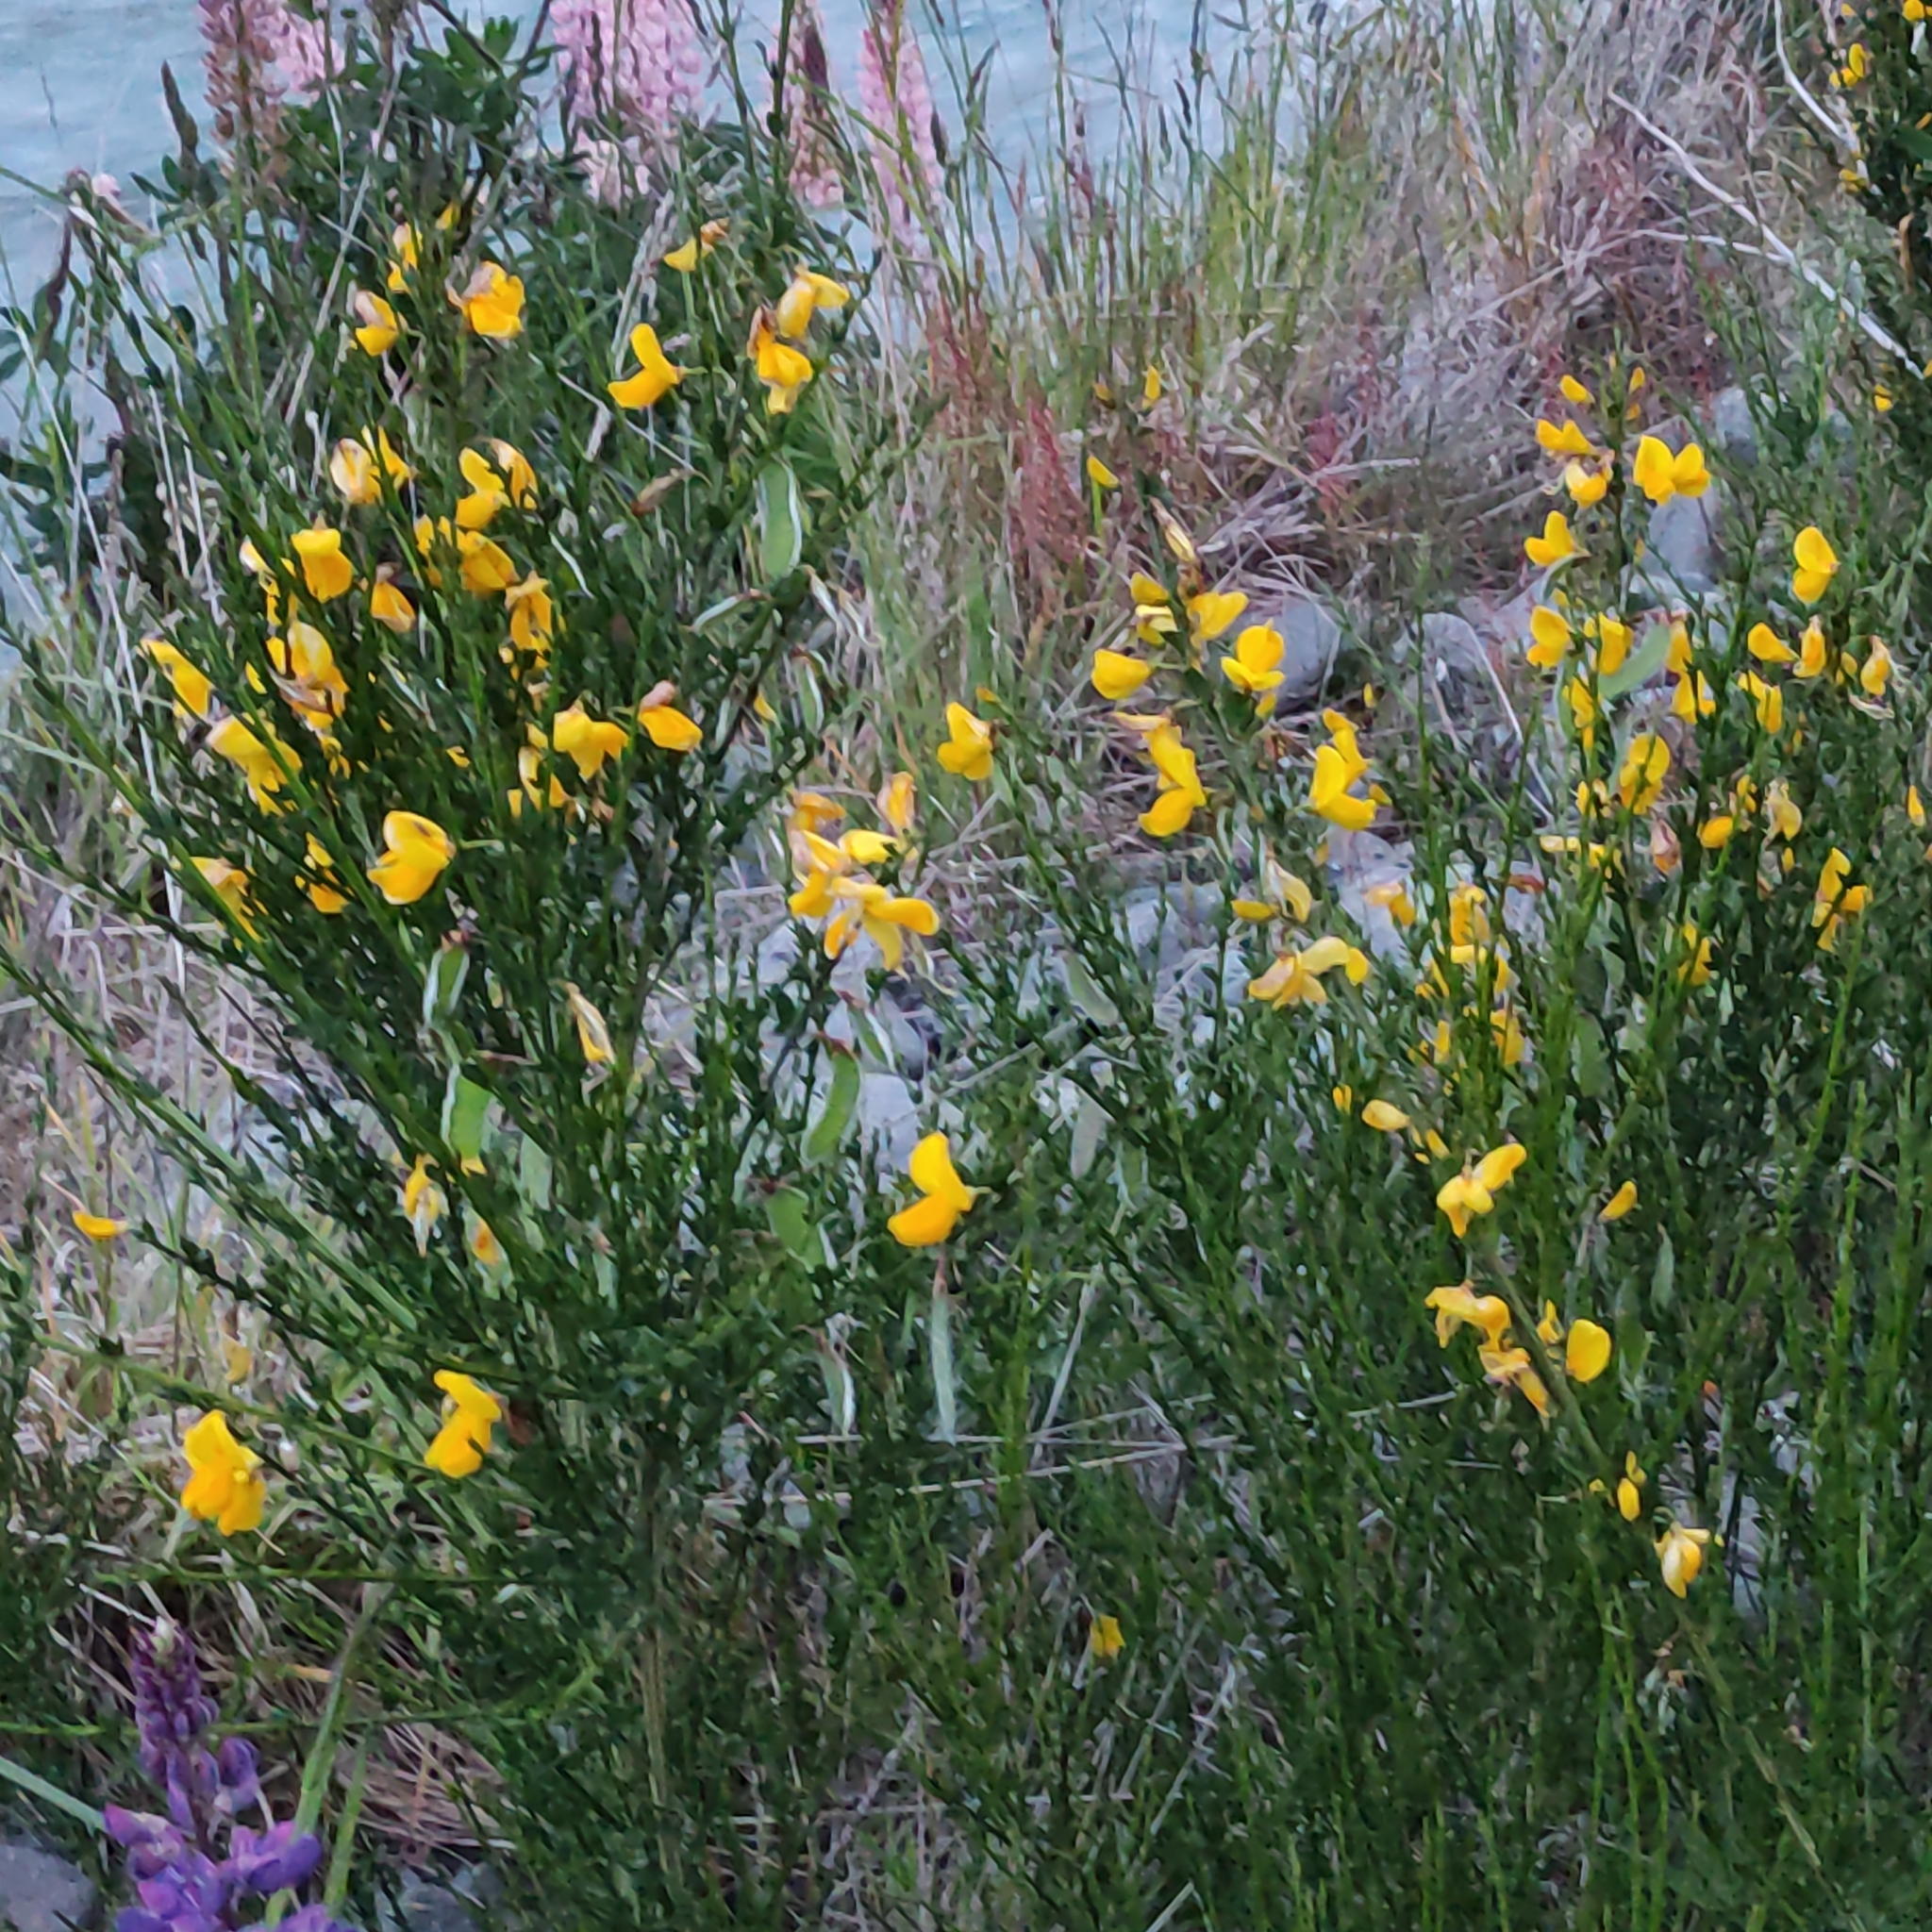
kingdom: Plantae
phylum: Tracheophyta
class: Magnoliopsida
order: Fabales
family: Fabaceae
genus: Cytisus
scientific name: Cytisus scoparius
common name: Scotch broom
